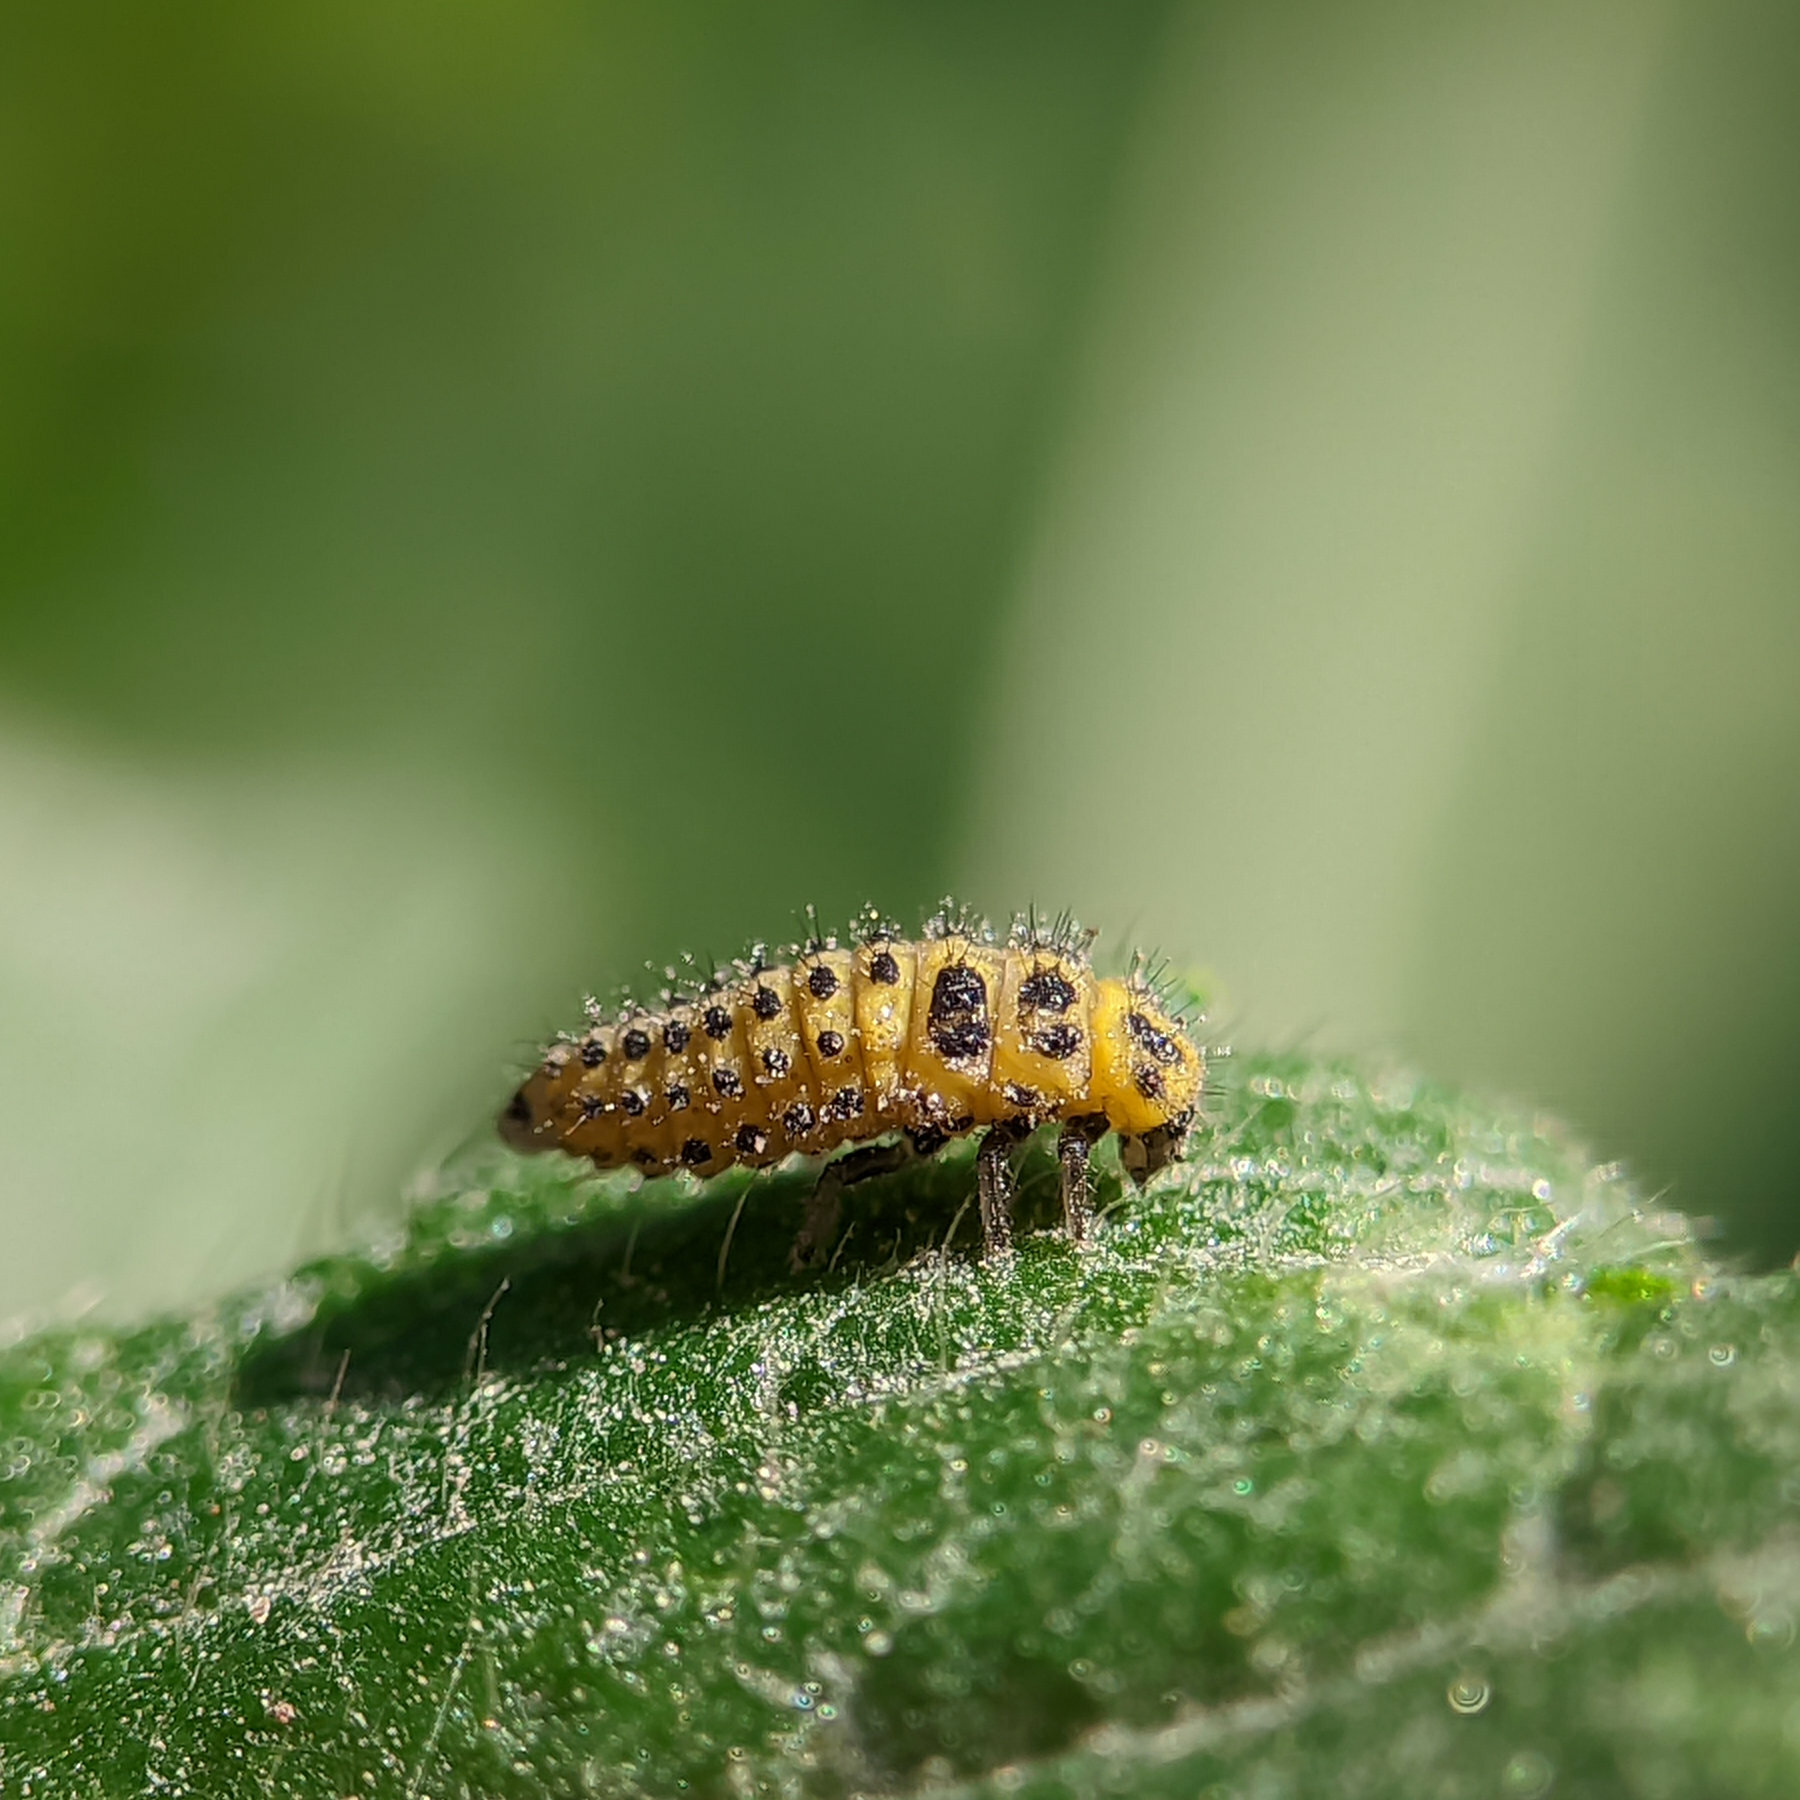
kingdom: Animalia
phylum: Arthropoda
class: Insecta
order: Coleoptera
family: Coccinellidae
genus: Psyllobora
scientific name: Psyllobora vigintiduopunctata
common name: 22-spot ladybird
